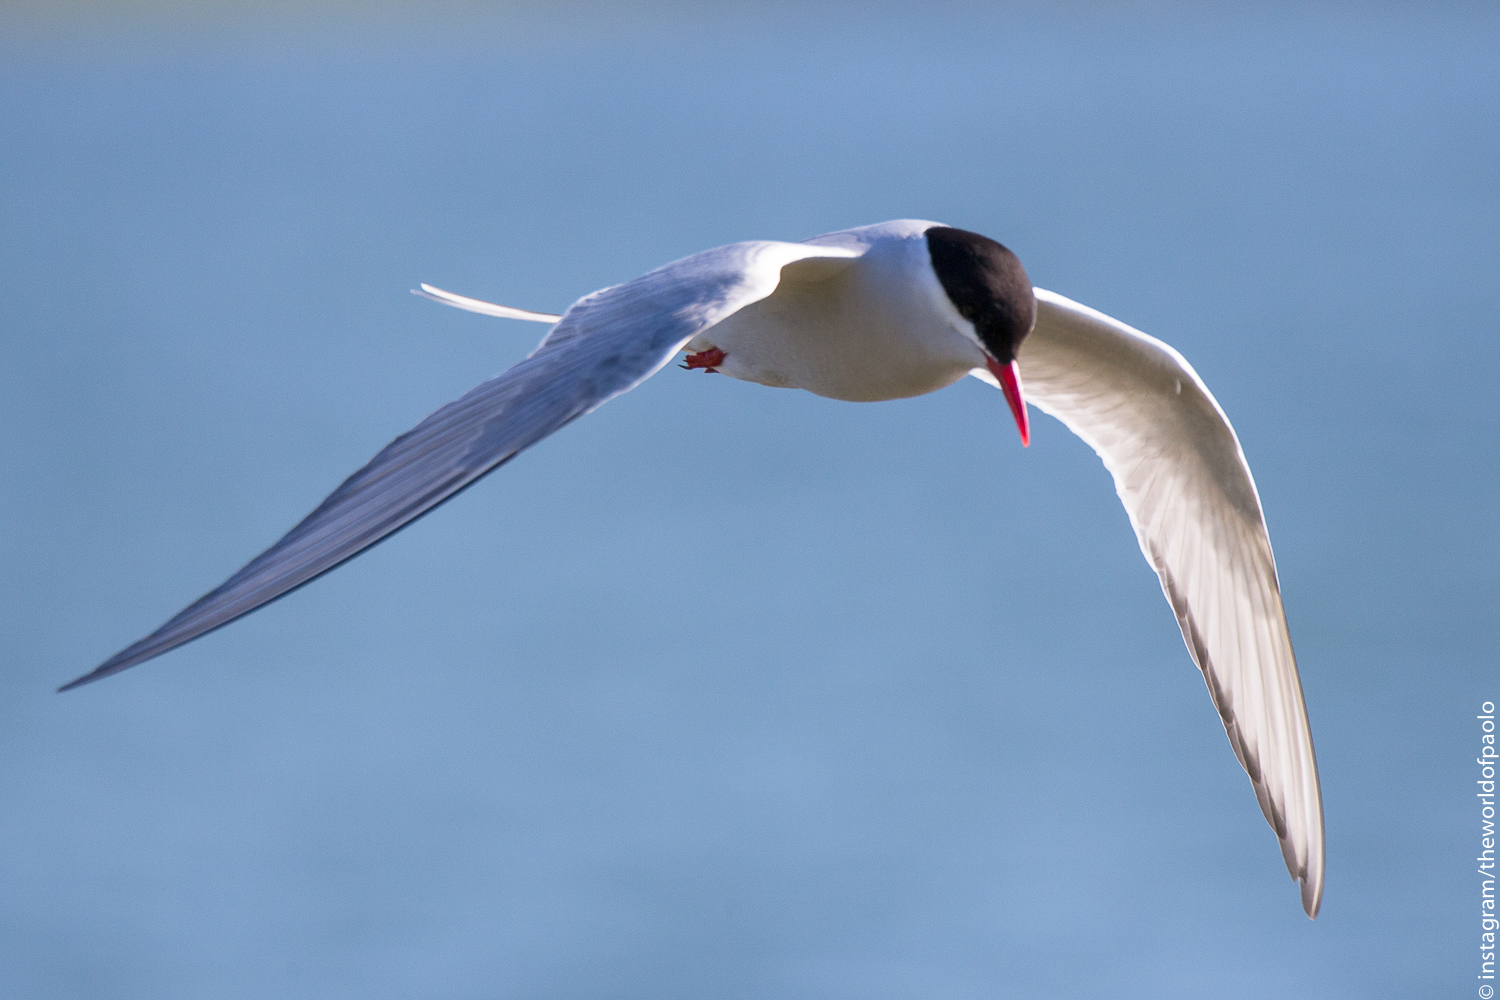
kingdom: Animalia
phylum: Chordata
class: Aves
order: Charadriiformes
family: Laridae
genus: Sterna
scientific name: Sterna paradisaea
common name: Arctic tern
